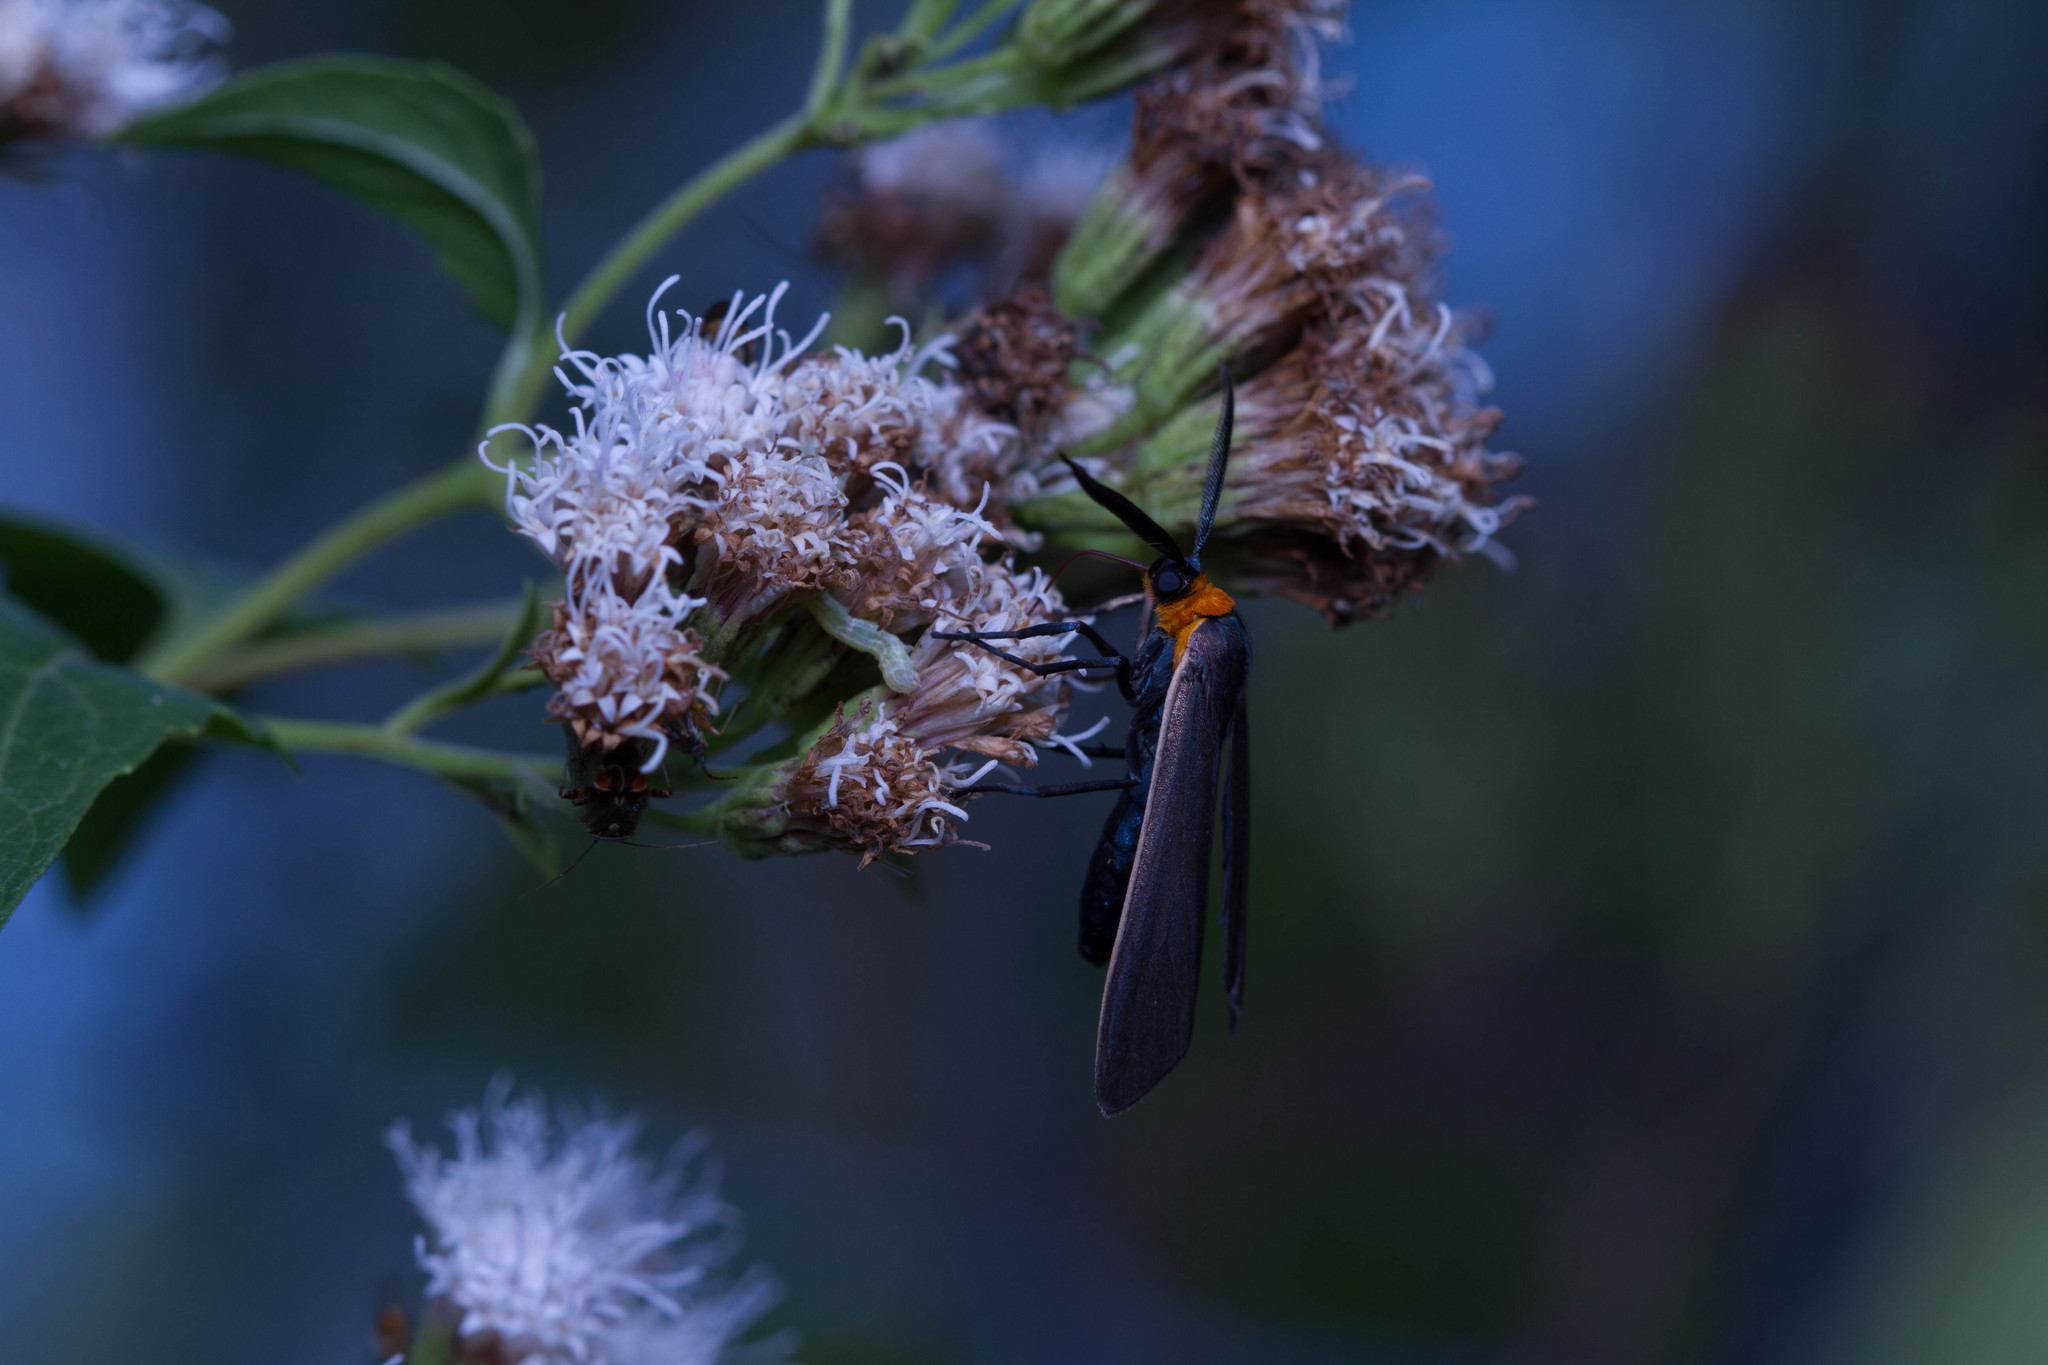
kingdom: Animalia
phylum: Arthropoda
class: Insecta
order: Lepidoptera
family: Erebidae
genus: Cisseps
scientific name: Cisseps fulvicollis
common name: Yellow-collared scape moth
